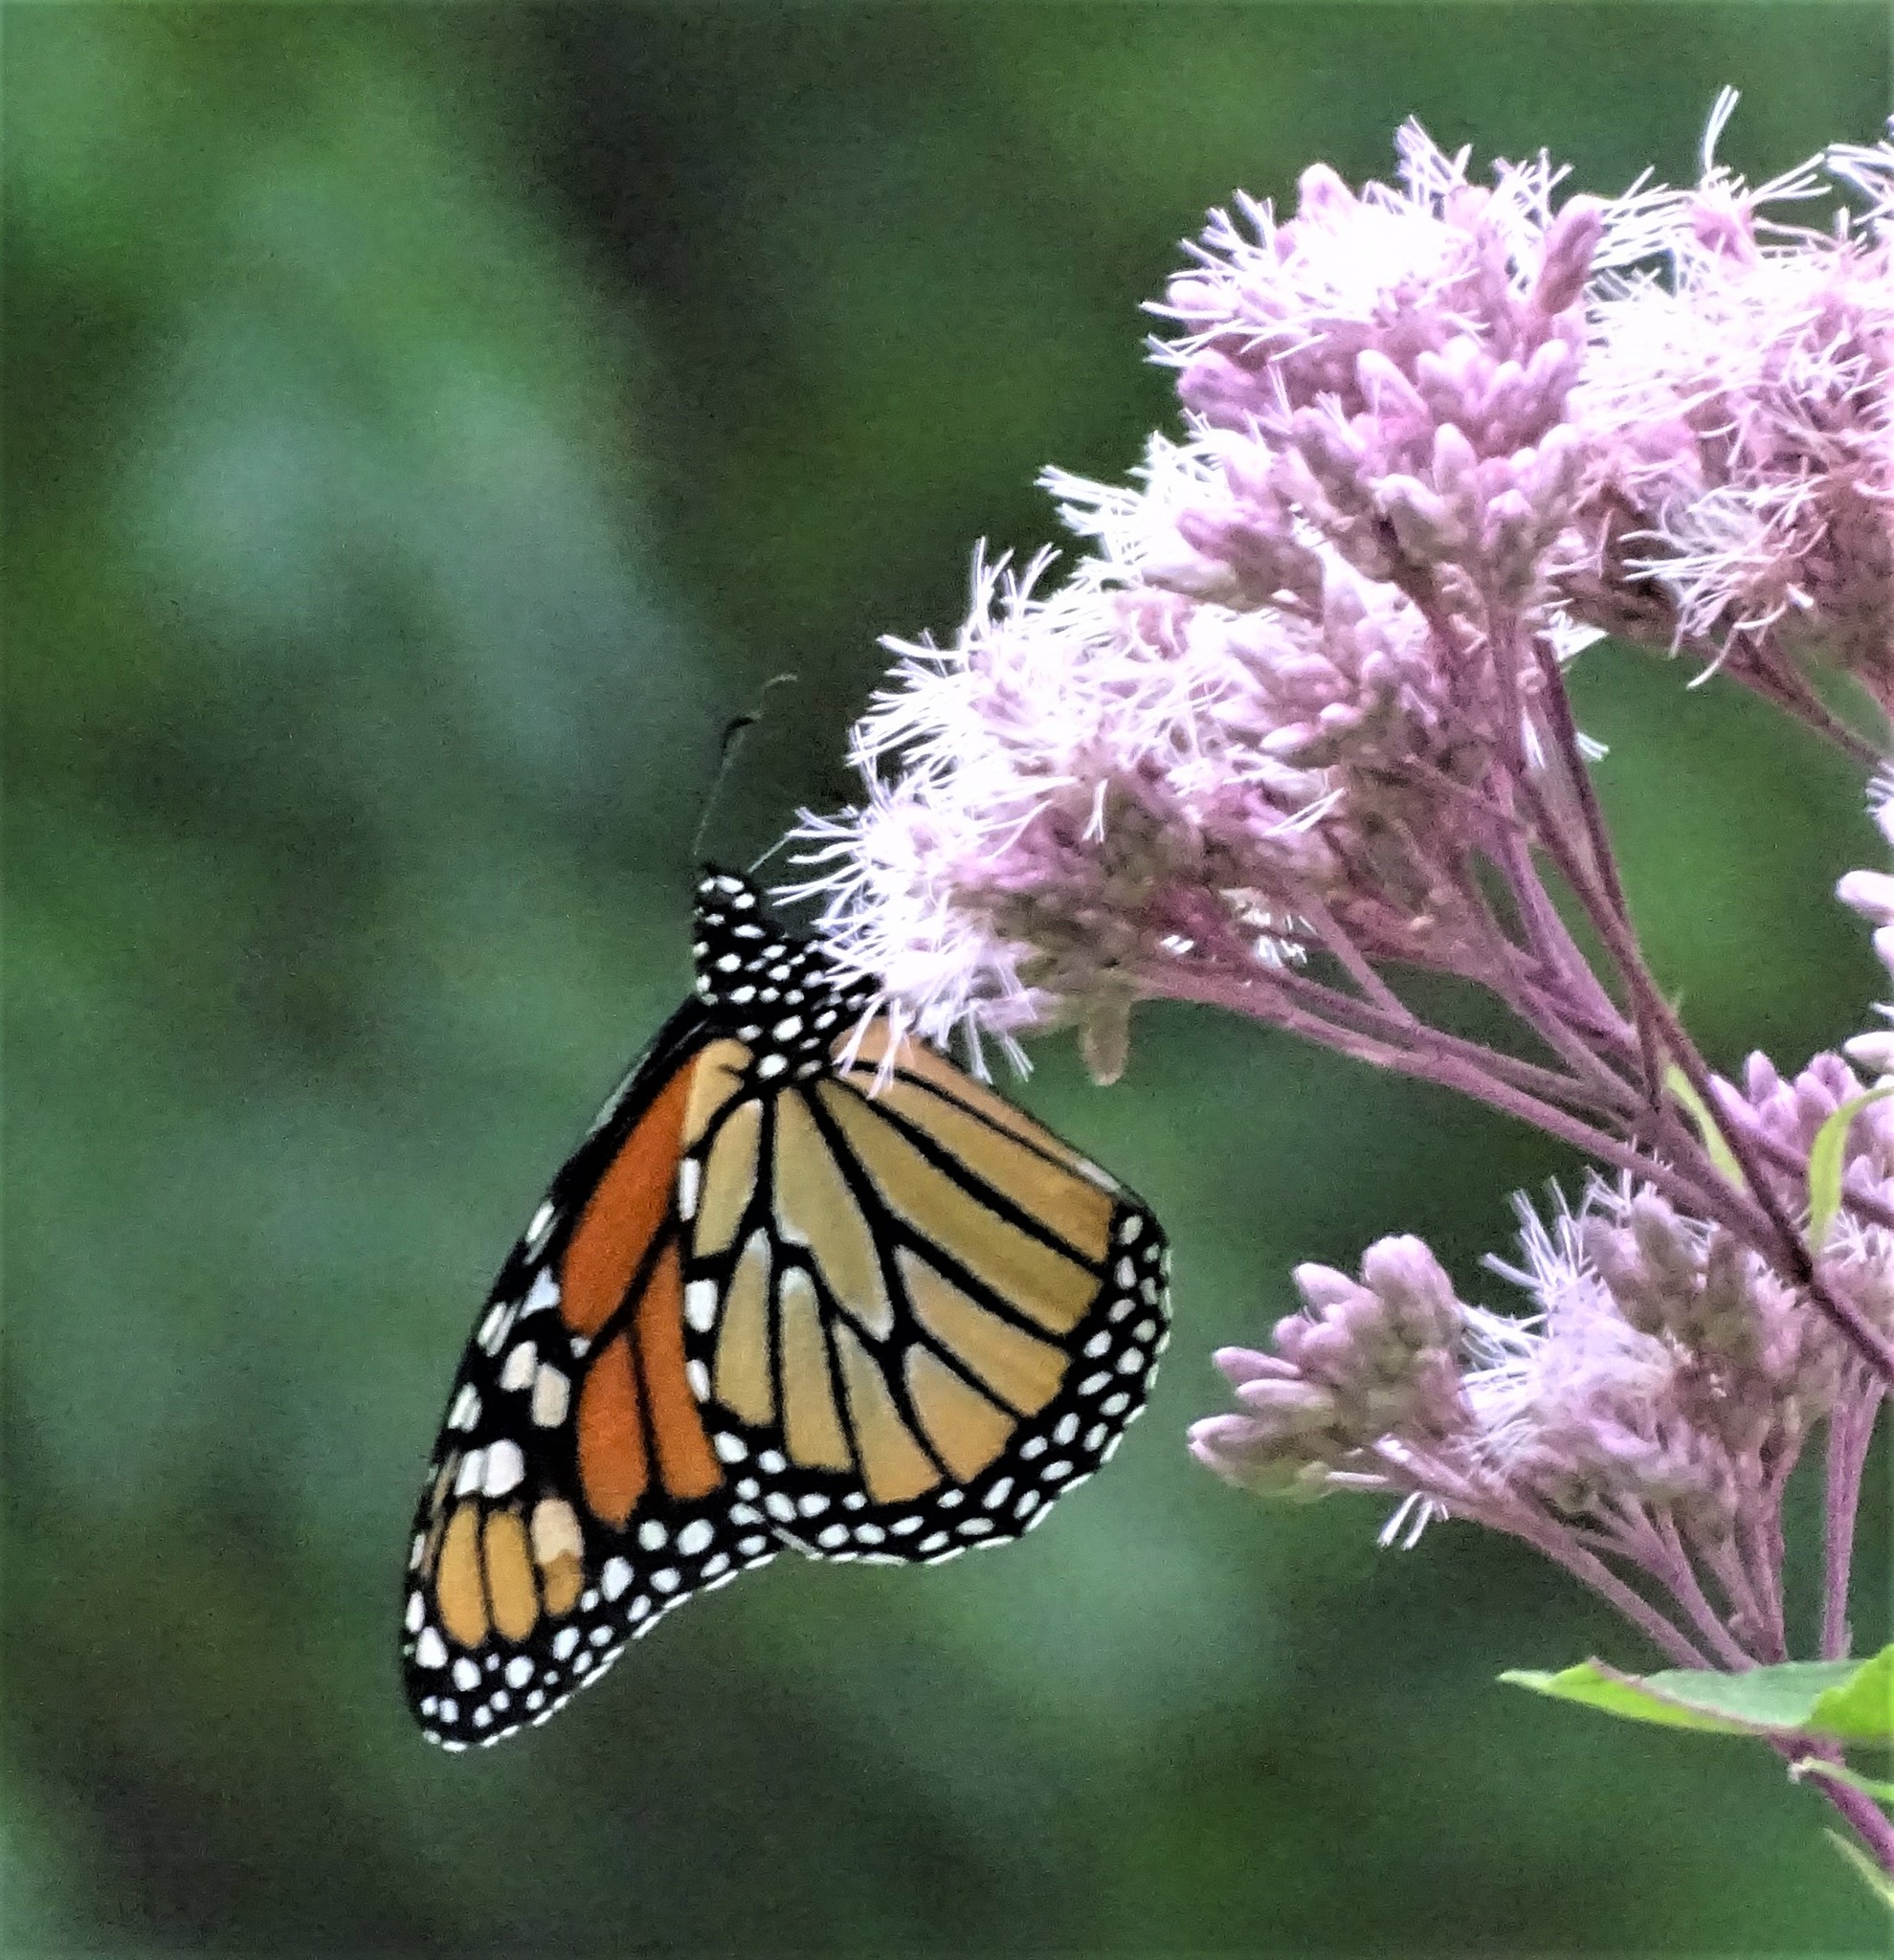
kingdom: Animalia
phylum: Arthropoda
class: Insecta
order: Lepidoptera
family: Nymphalidae
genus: Danaus
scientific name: Danaus plexippus
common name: Monarch
